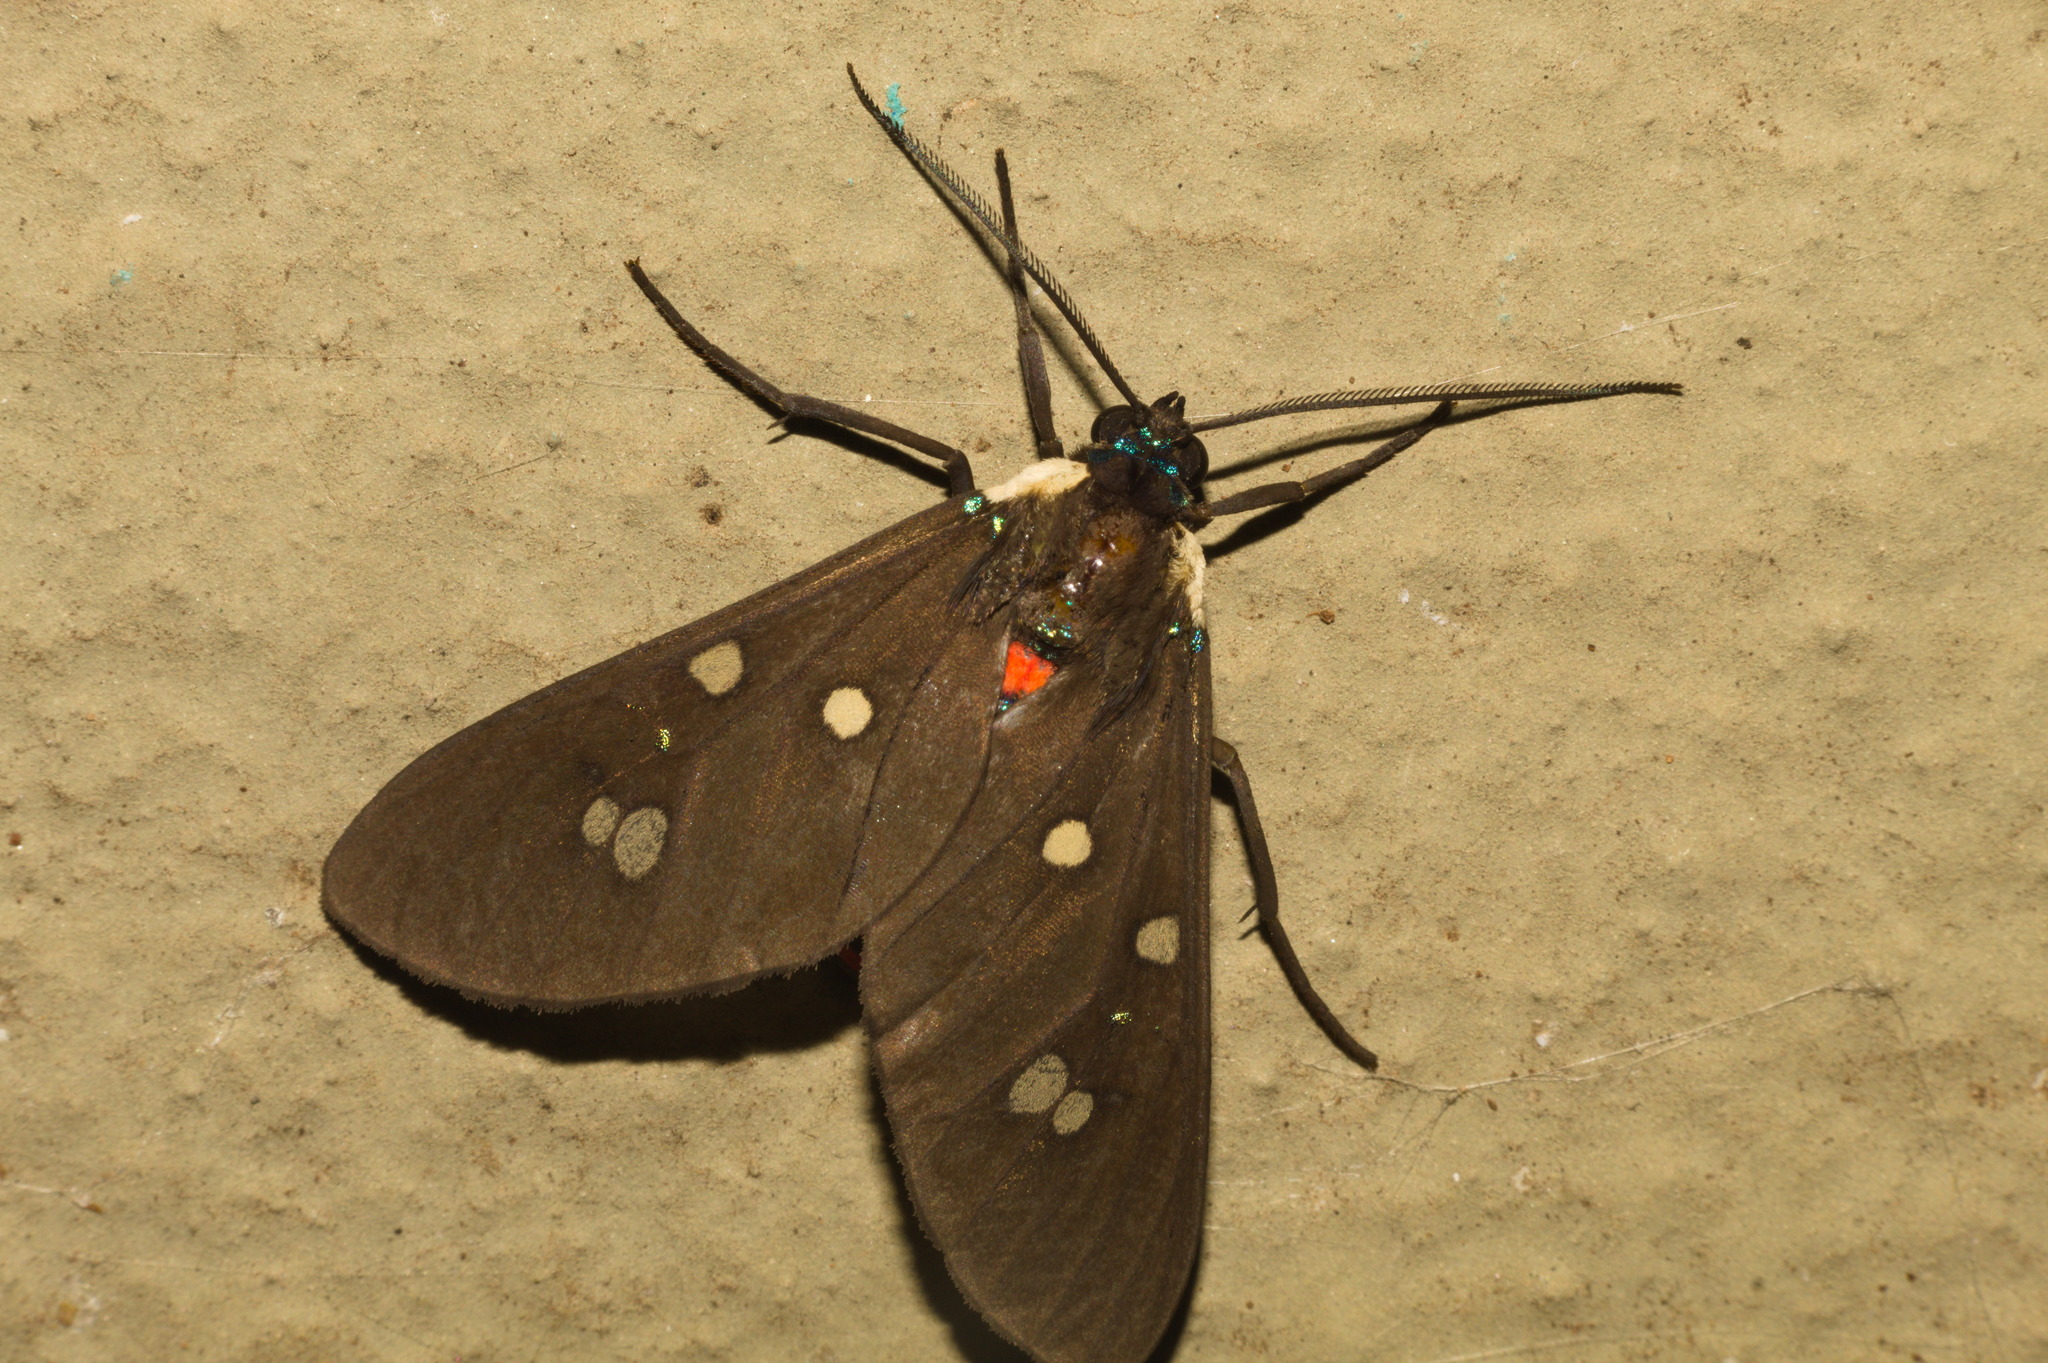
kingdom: Animalia
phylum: Arthropoda
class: Insecta
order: Lepidoptera
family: Erebidae
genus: Euclera
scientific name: Euclera
